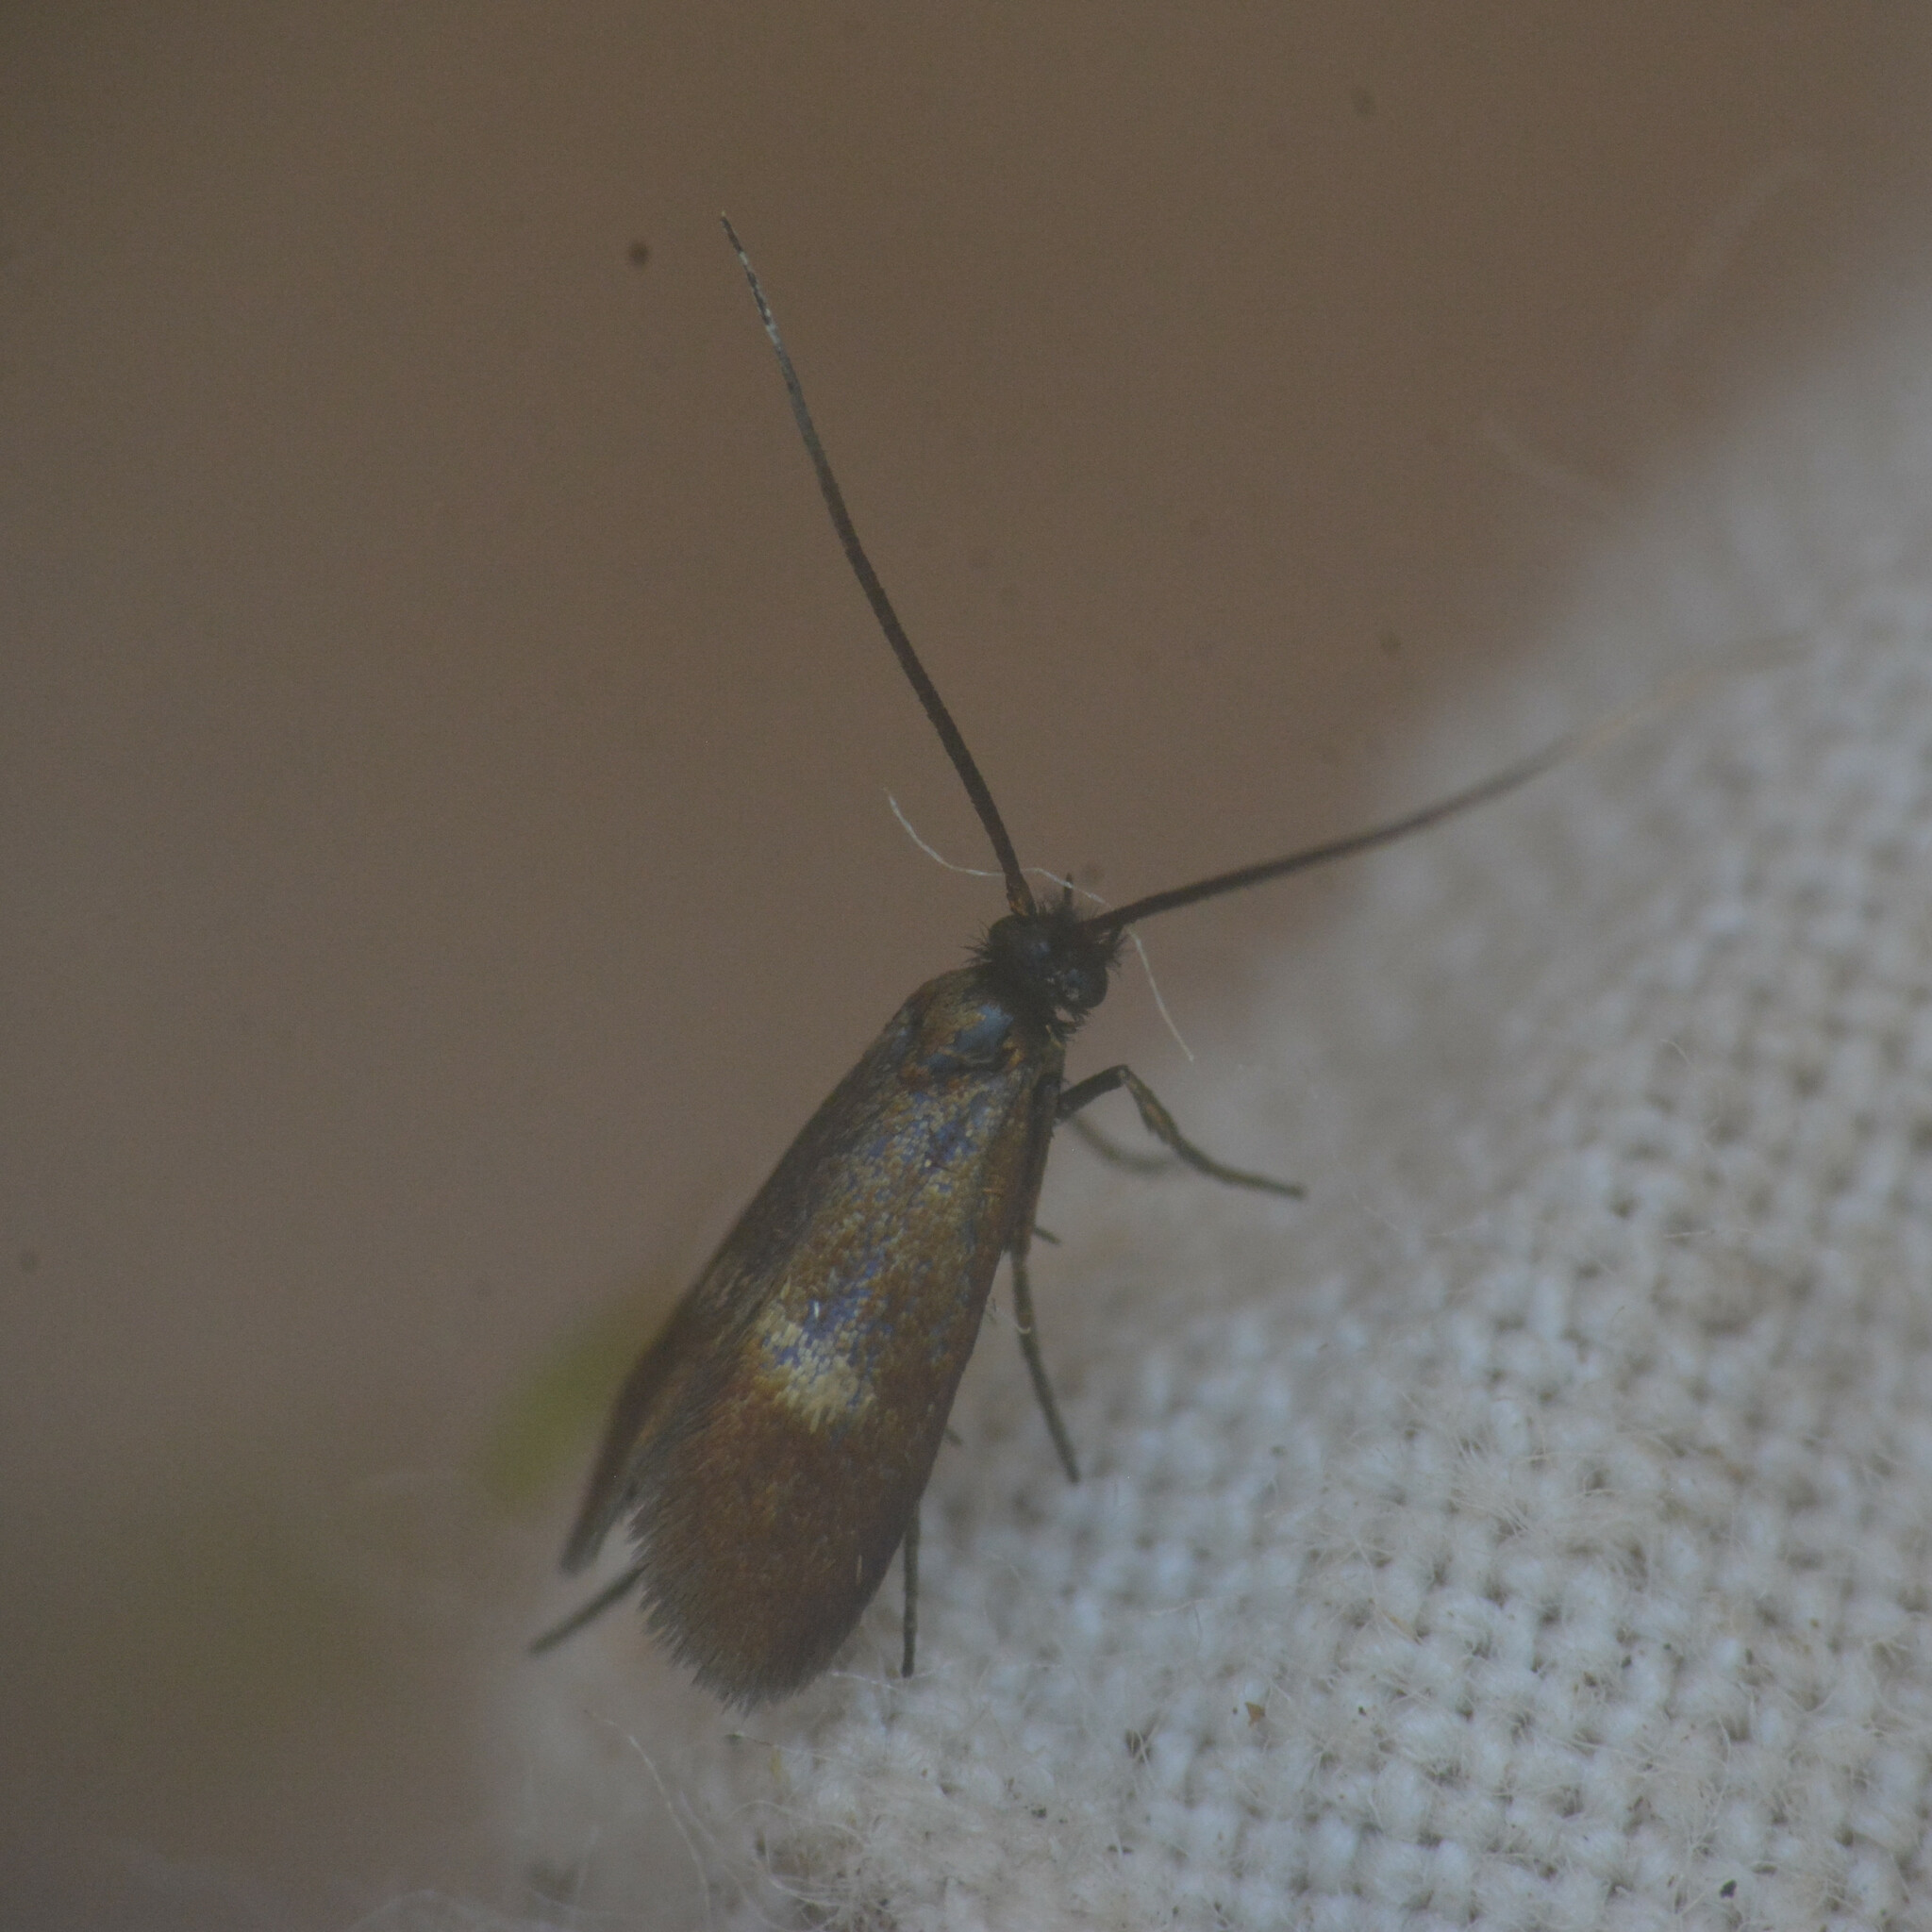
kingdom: Animalia
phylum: Arthropoda
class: Insecta
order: Lepidoptera
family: Adelidae
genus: Cauchas
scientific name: Cauchas fibulella
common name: Little long-horn
